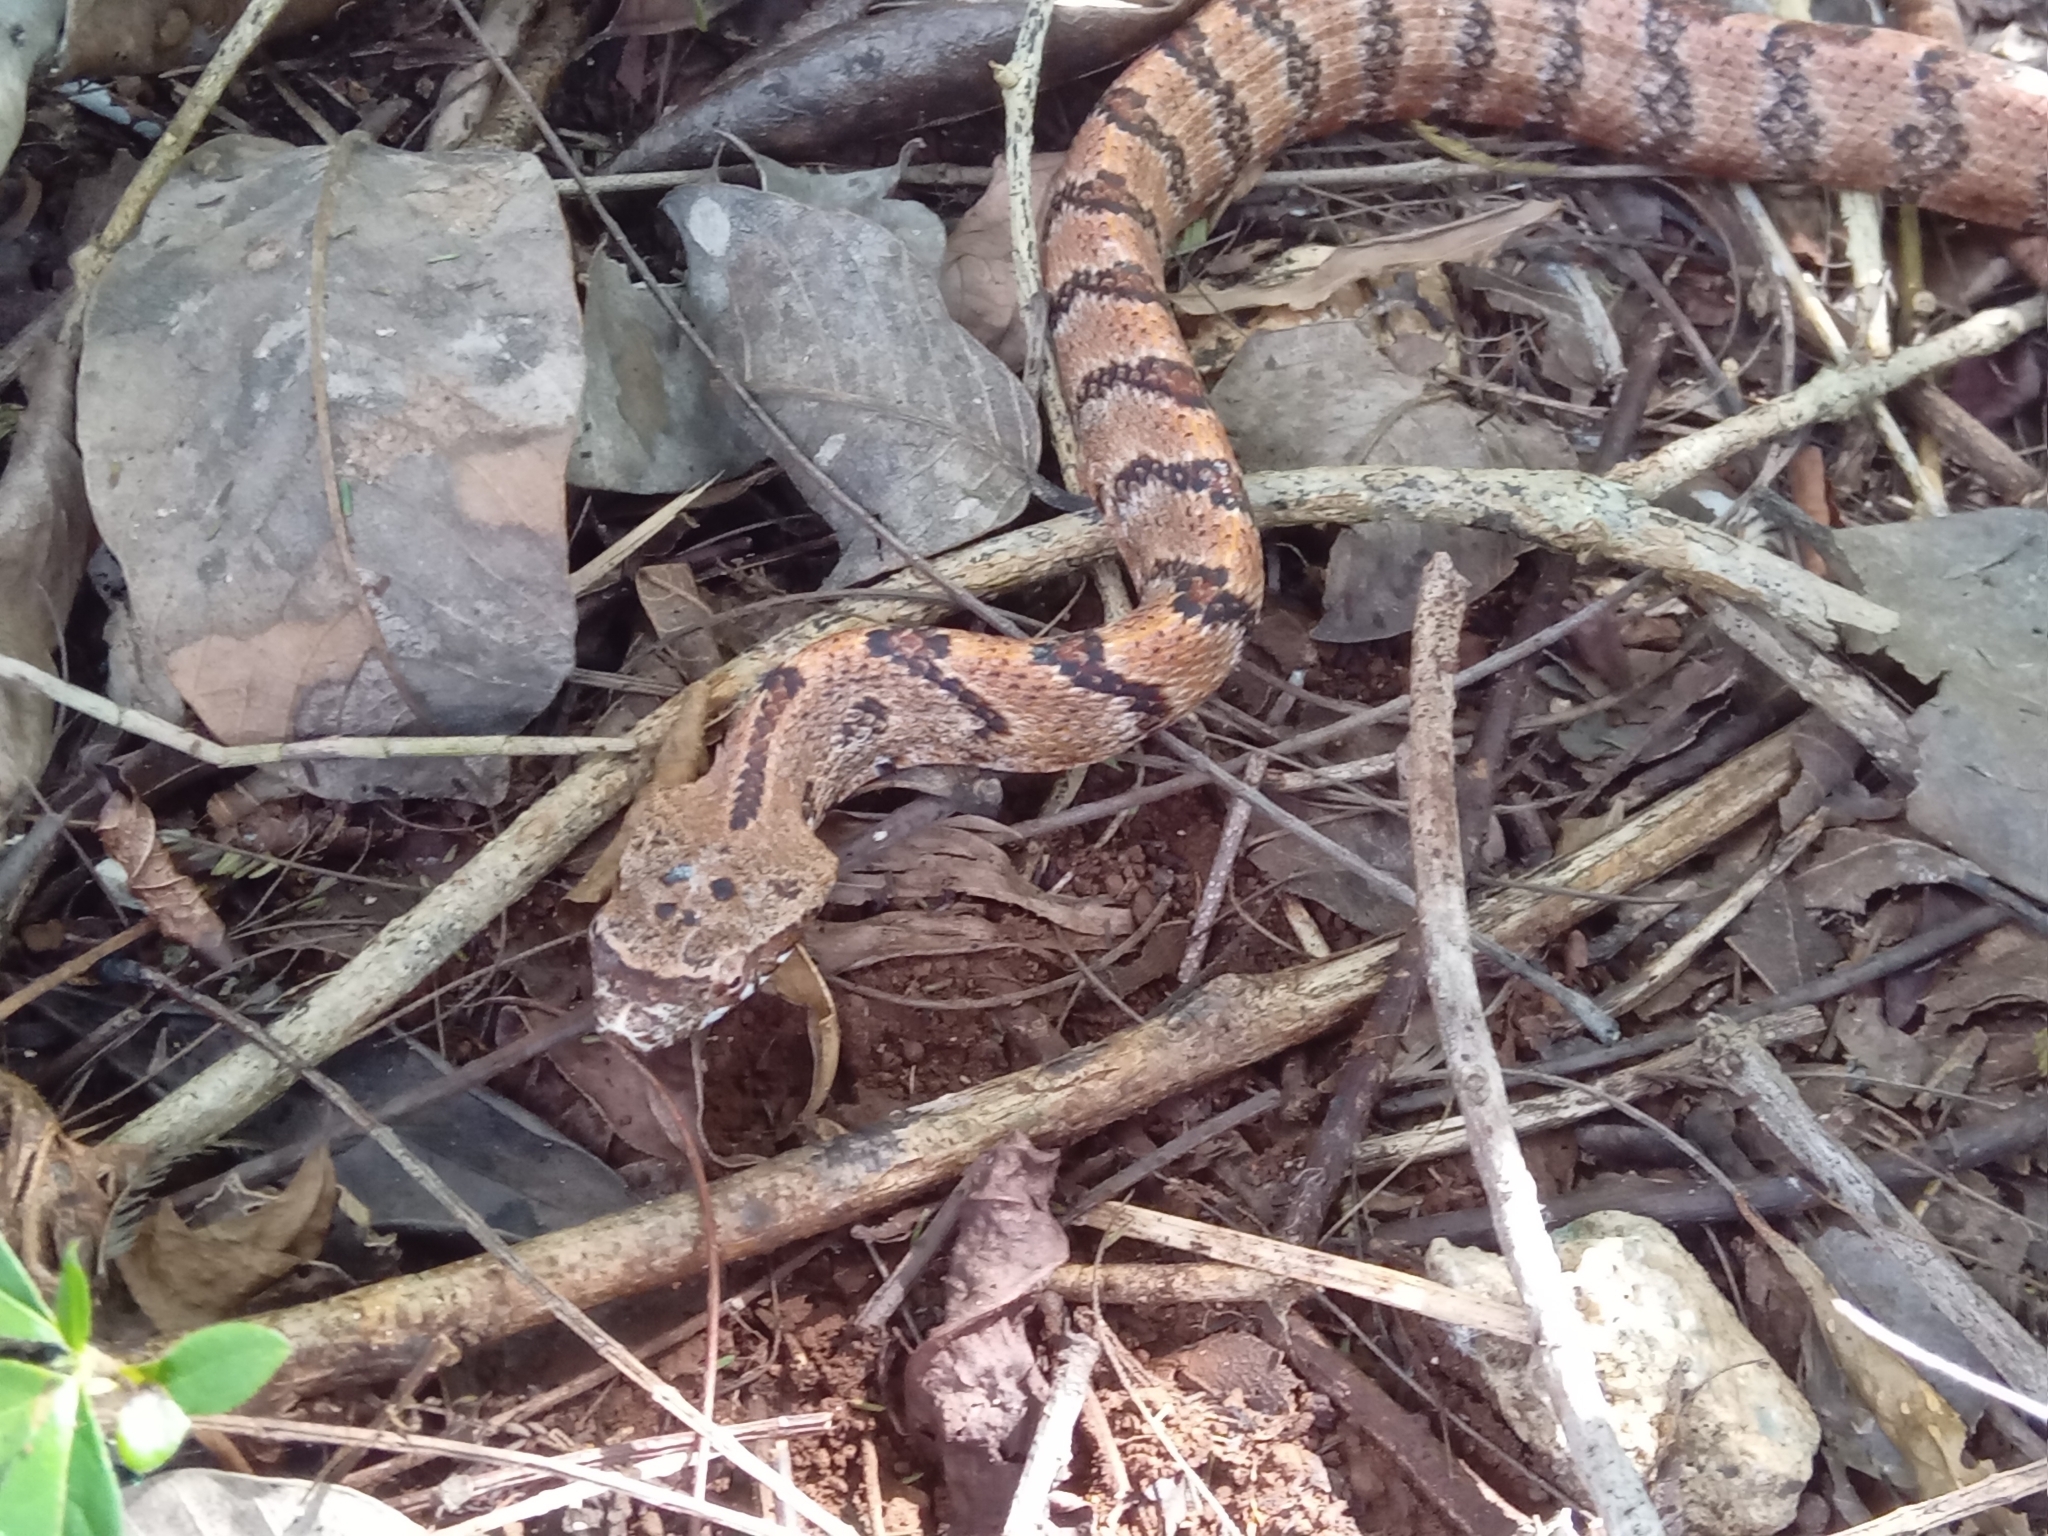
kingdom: Animalia
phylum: Chordata
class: Squamata
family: Colubridae
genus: Phrynonax
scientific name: Phrynonax poecilonotus
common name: Puffing snake
